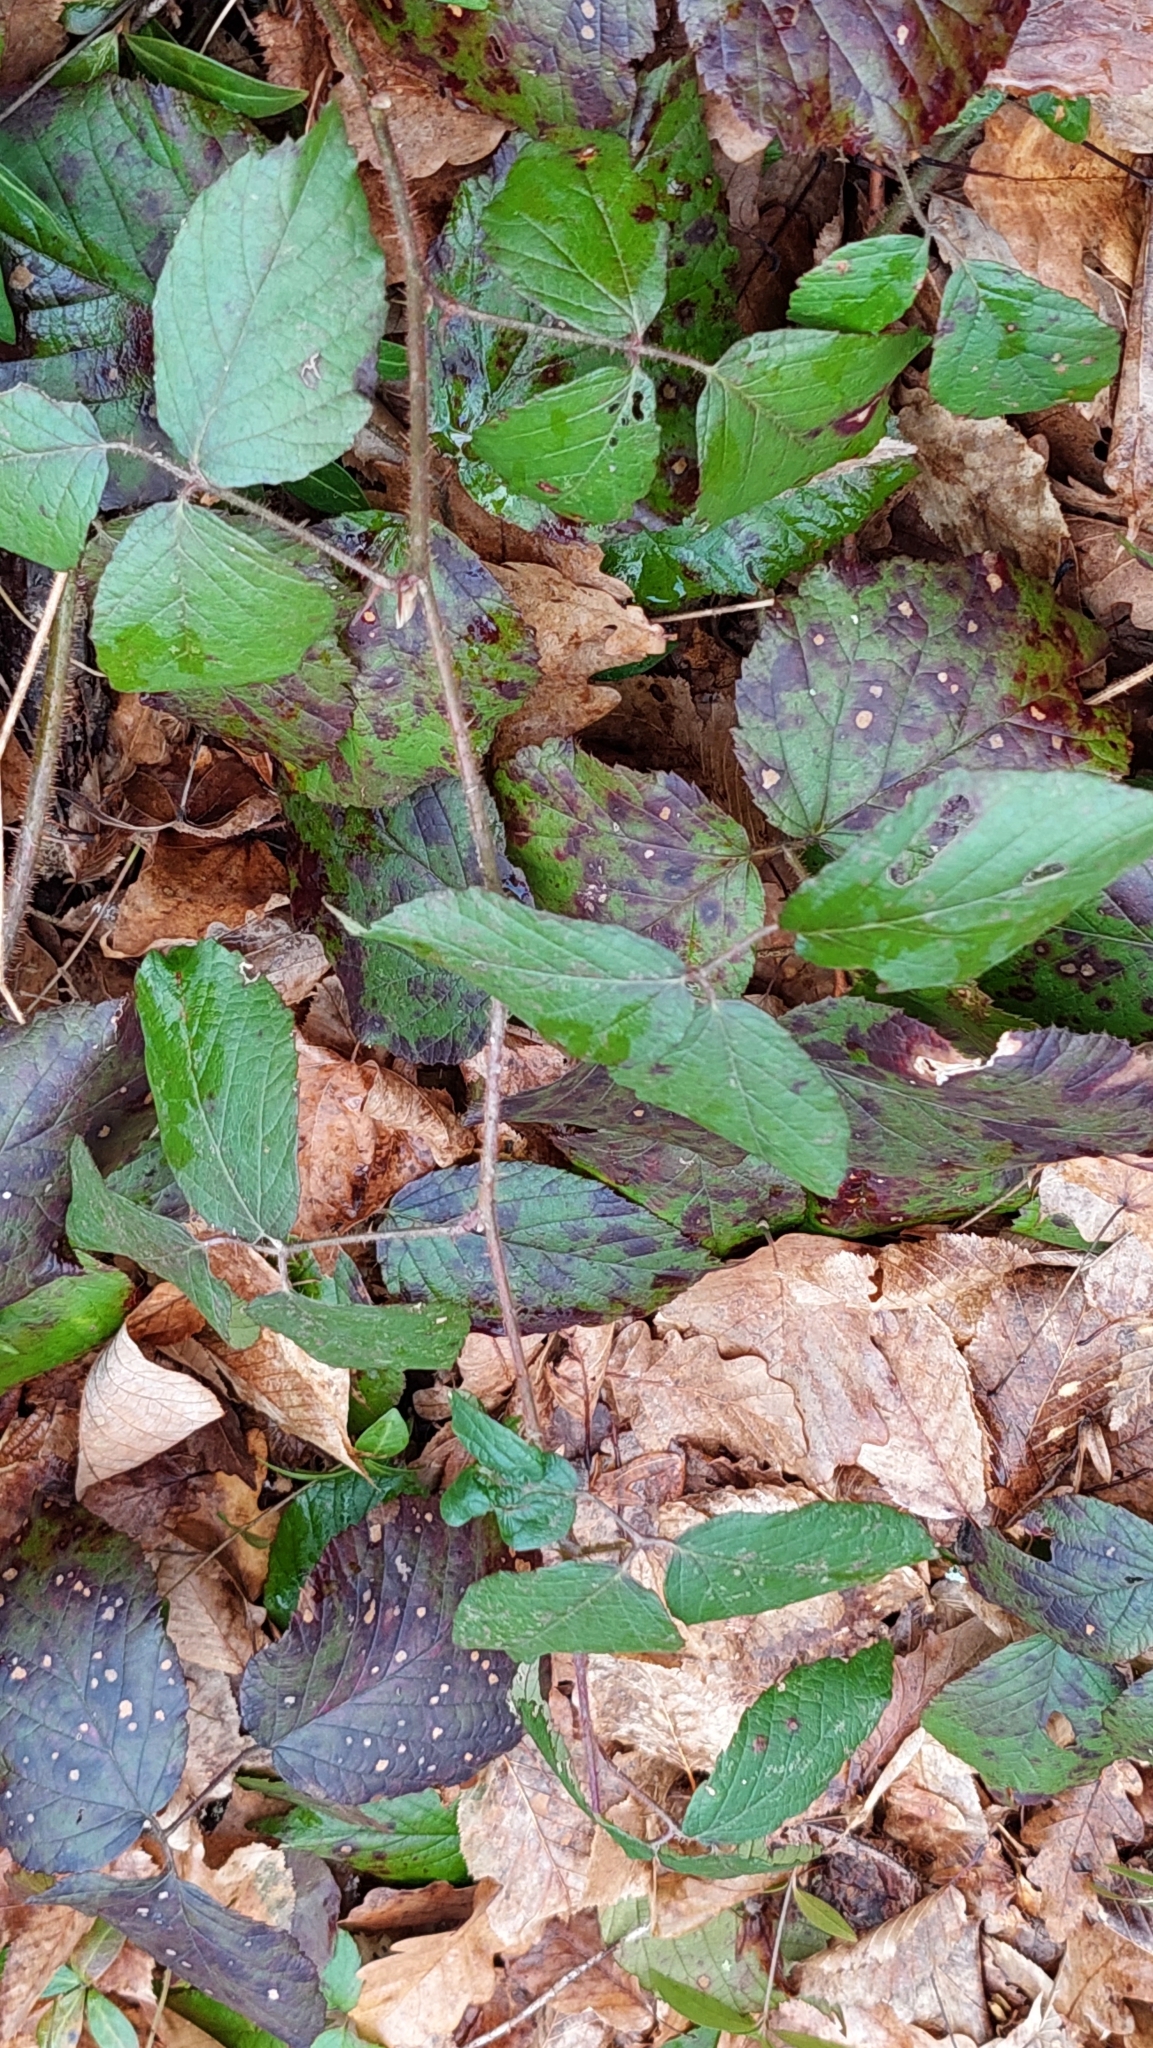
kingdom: Plantae
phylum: Tracheophyta
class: Magnoliopsida
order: Rosales
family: Rosaceae
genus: Rubus
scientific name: Rubus hirtus
